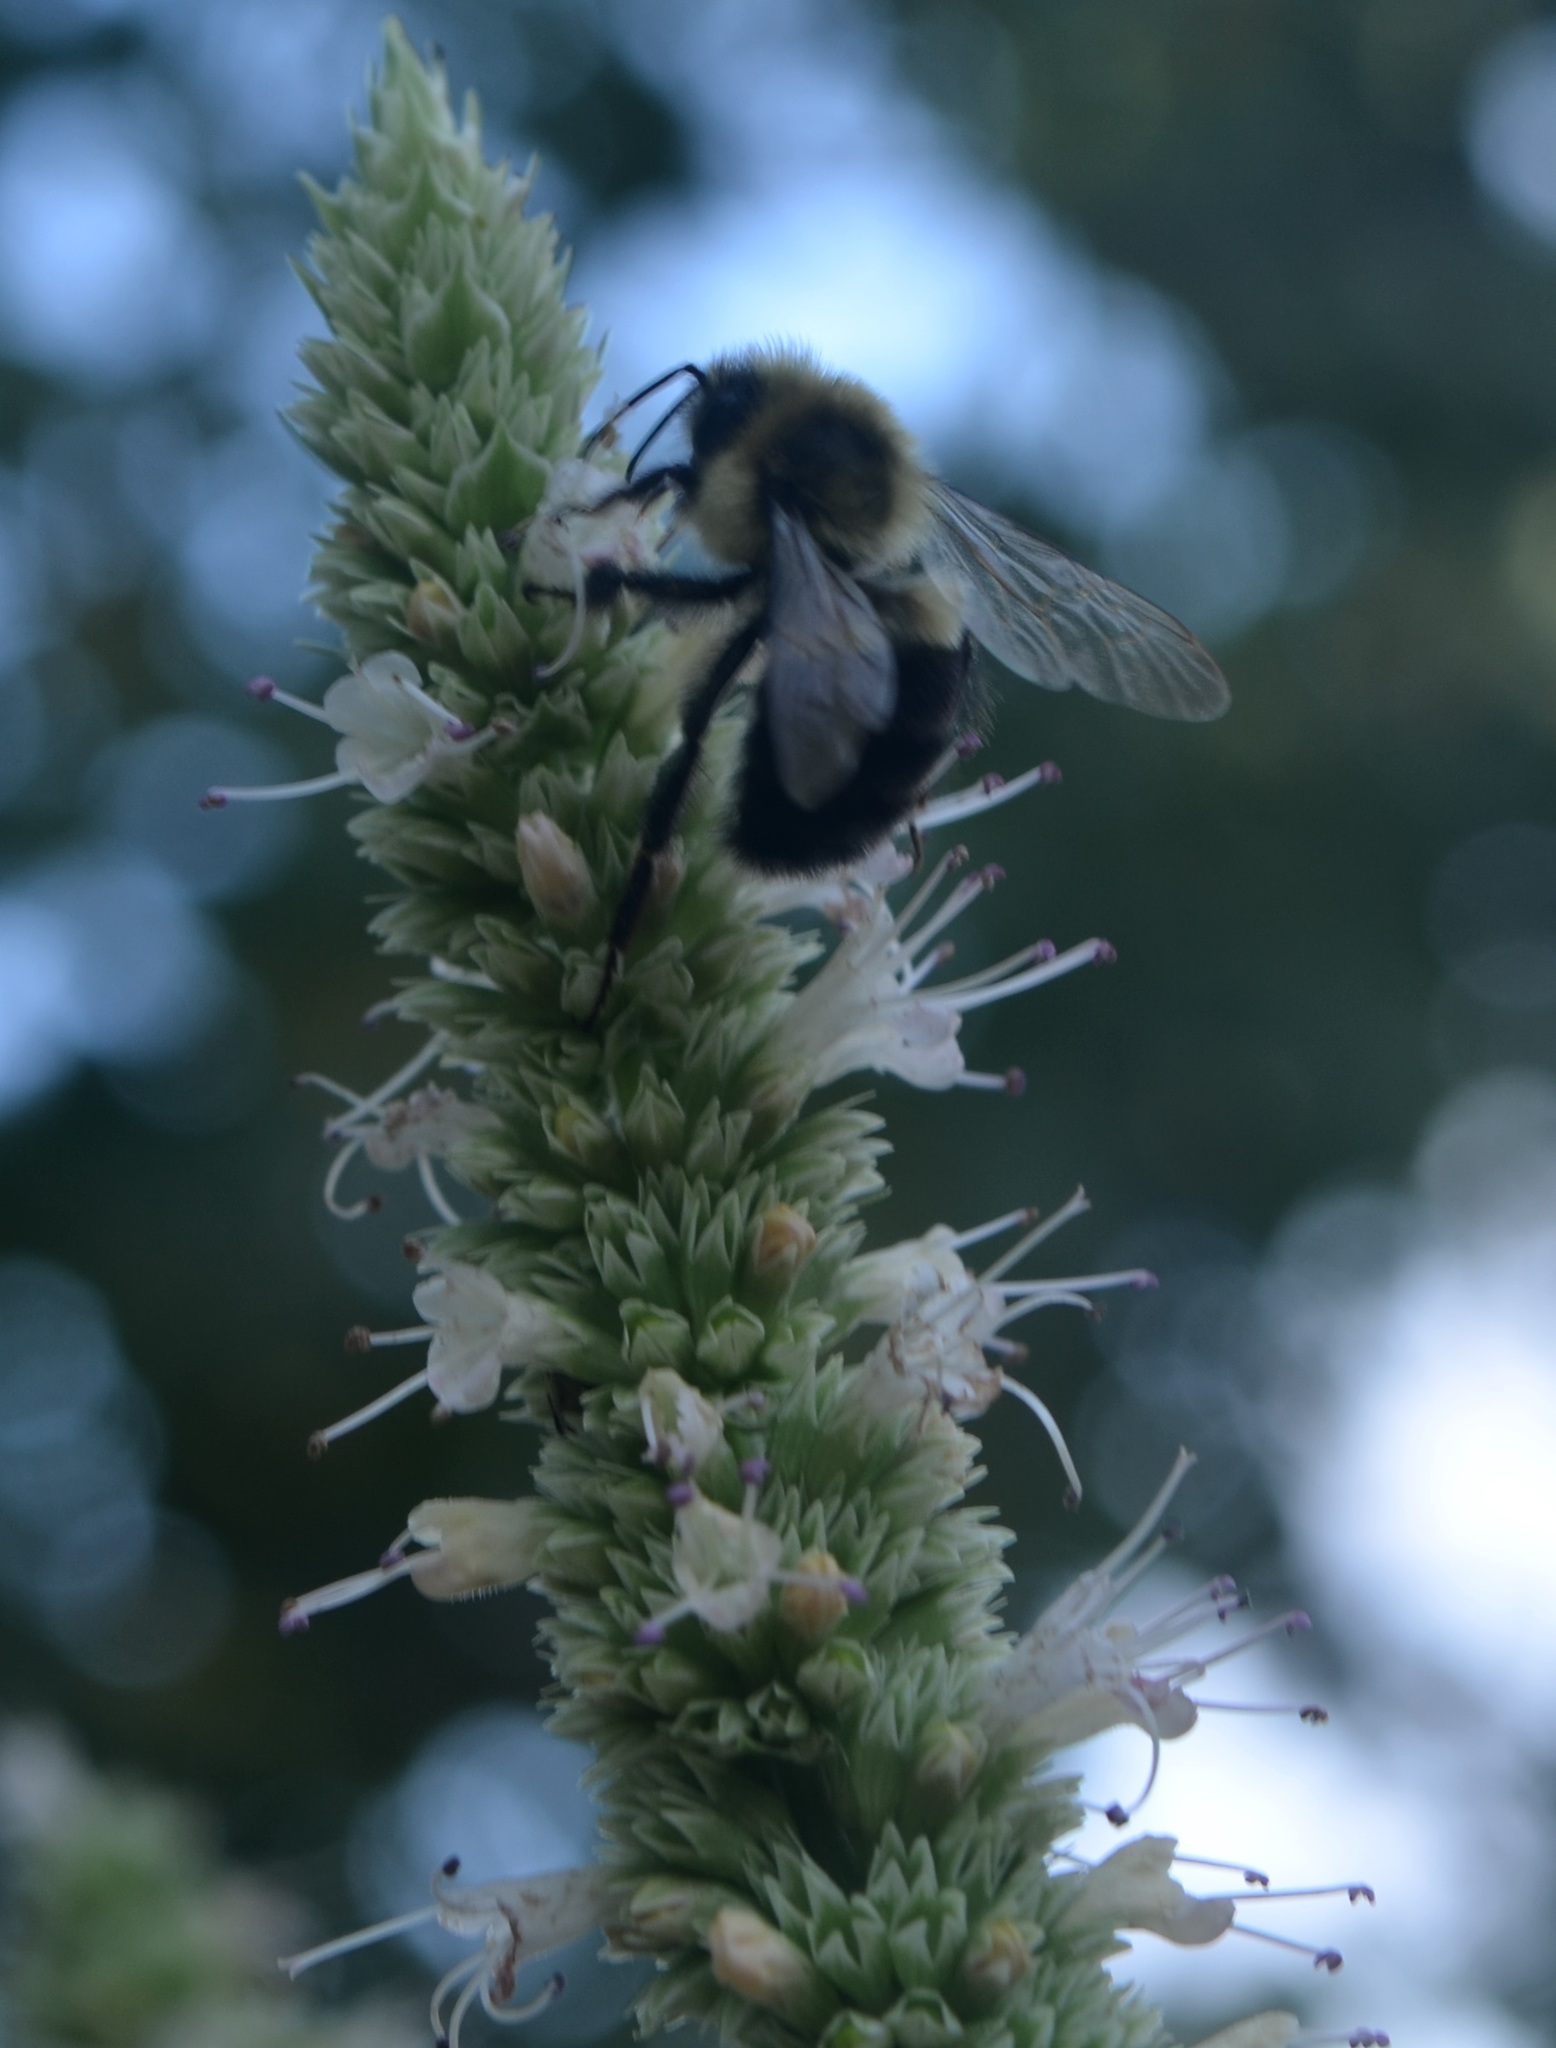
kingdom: Plantae
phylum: Tracheophyta
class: Magnoliopsida
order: Lamiales
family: Lamiaceae
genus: Agastache
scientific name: Agastache scrophulariifolia
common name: Figwort giant hyssop
